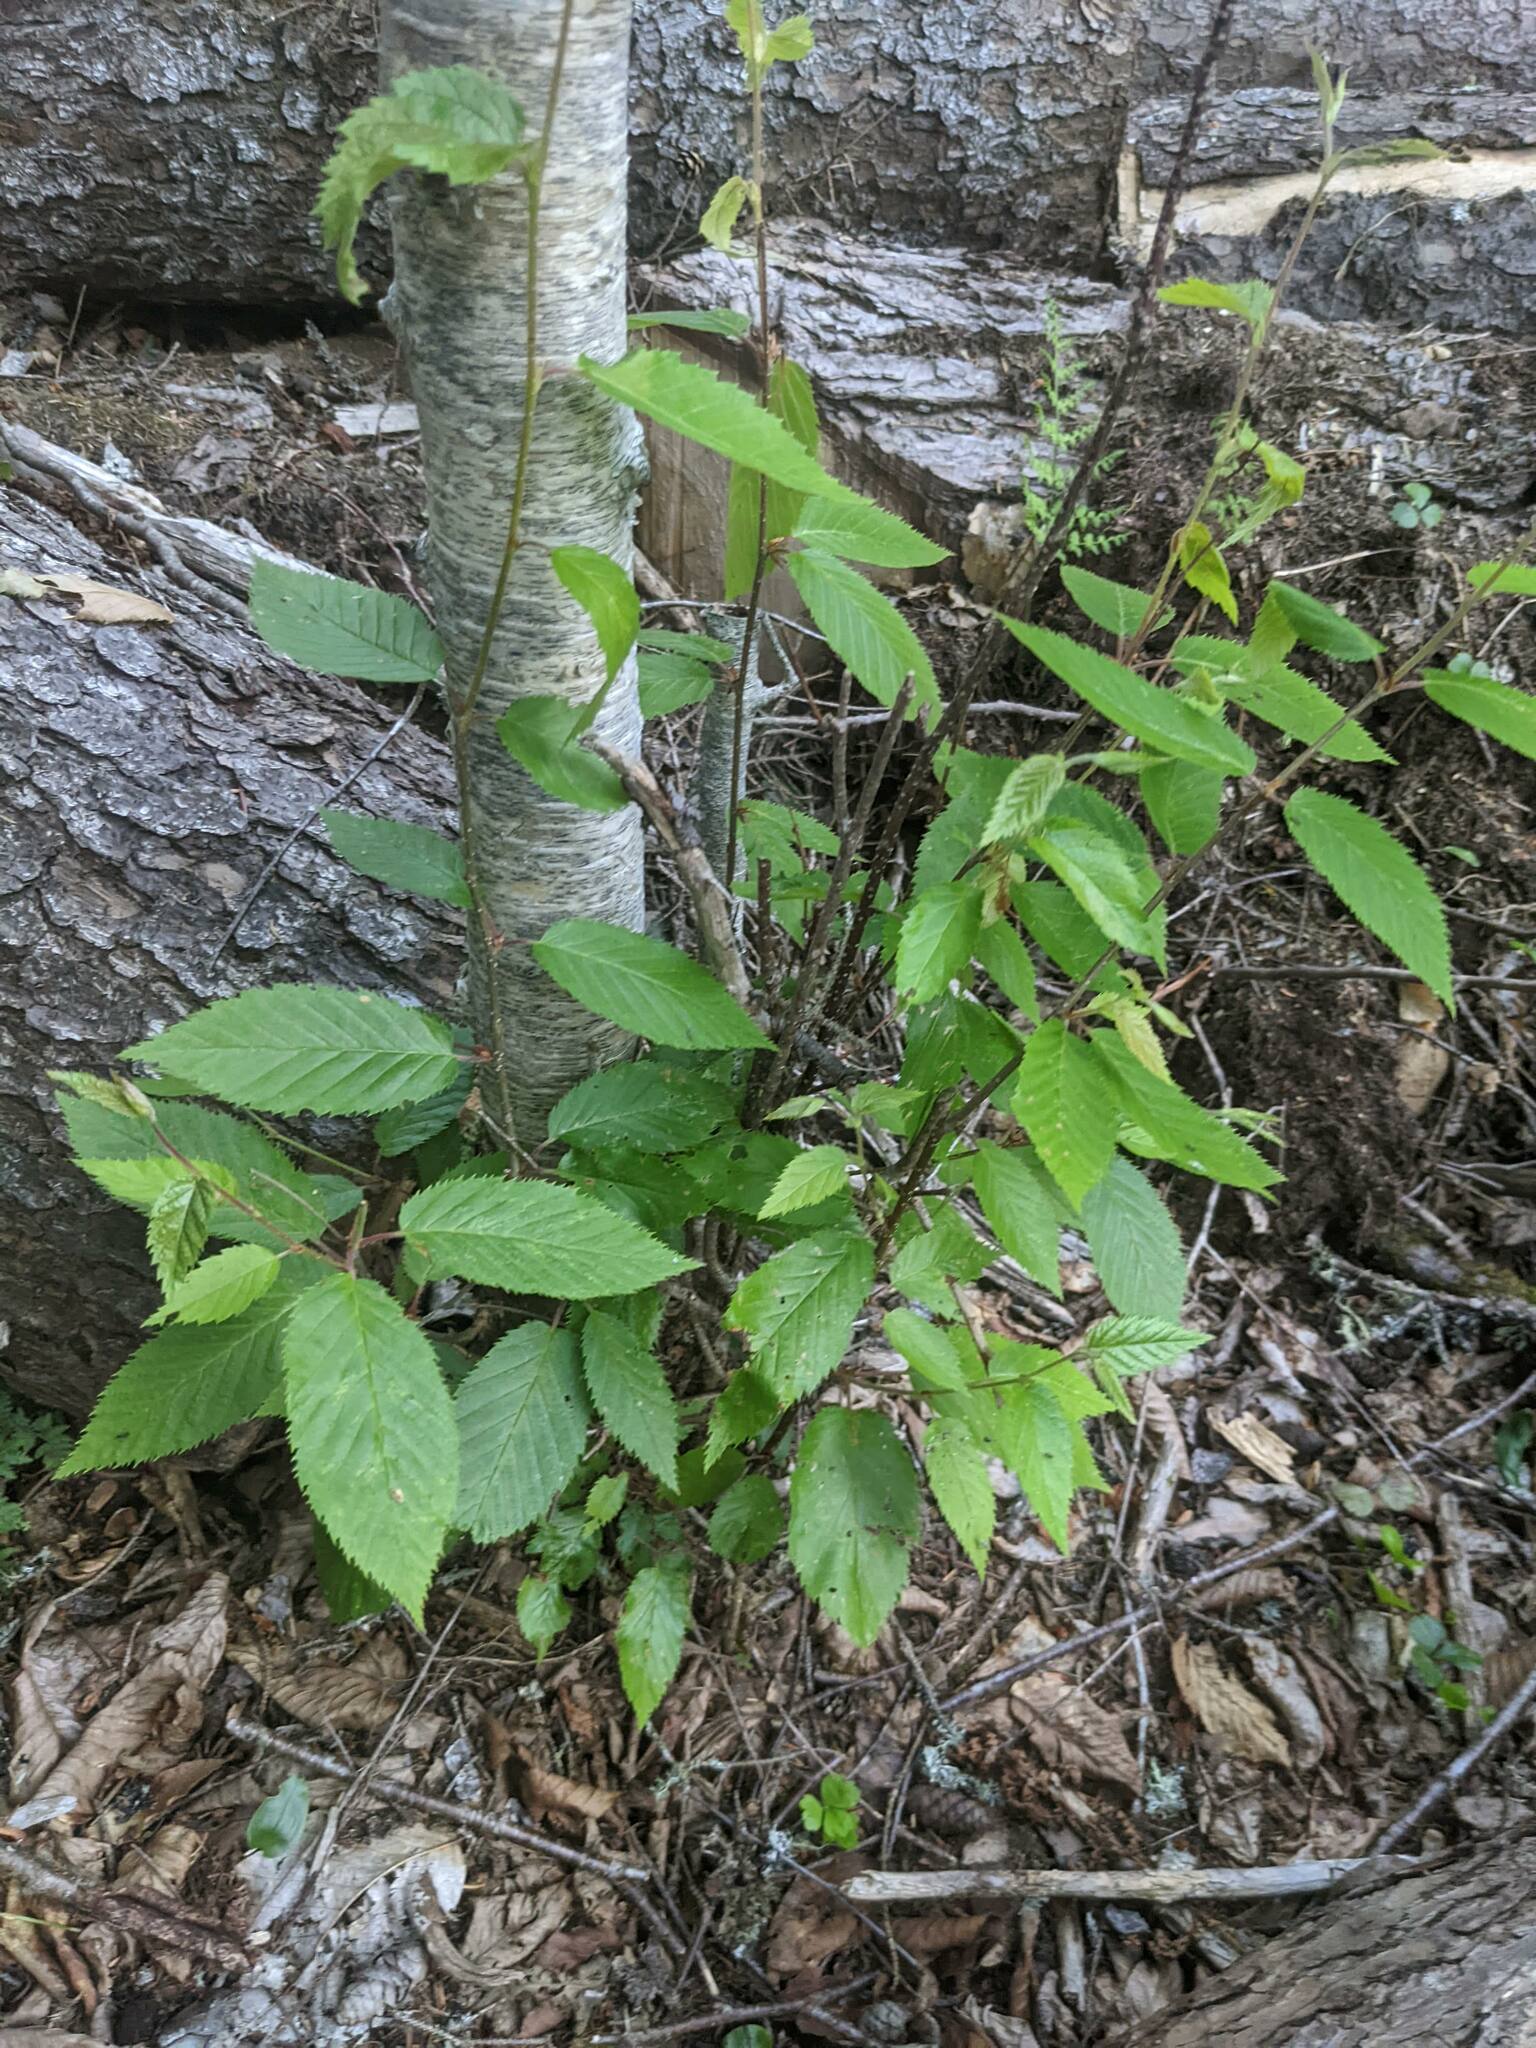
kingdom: Plantae
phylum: Tracheophyta
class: Magnoliopsida
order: Fagales
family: Betulaceae
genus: Betula
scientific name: Betula alleghaniensis
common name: Yellow birch
